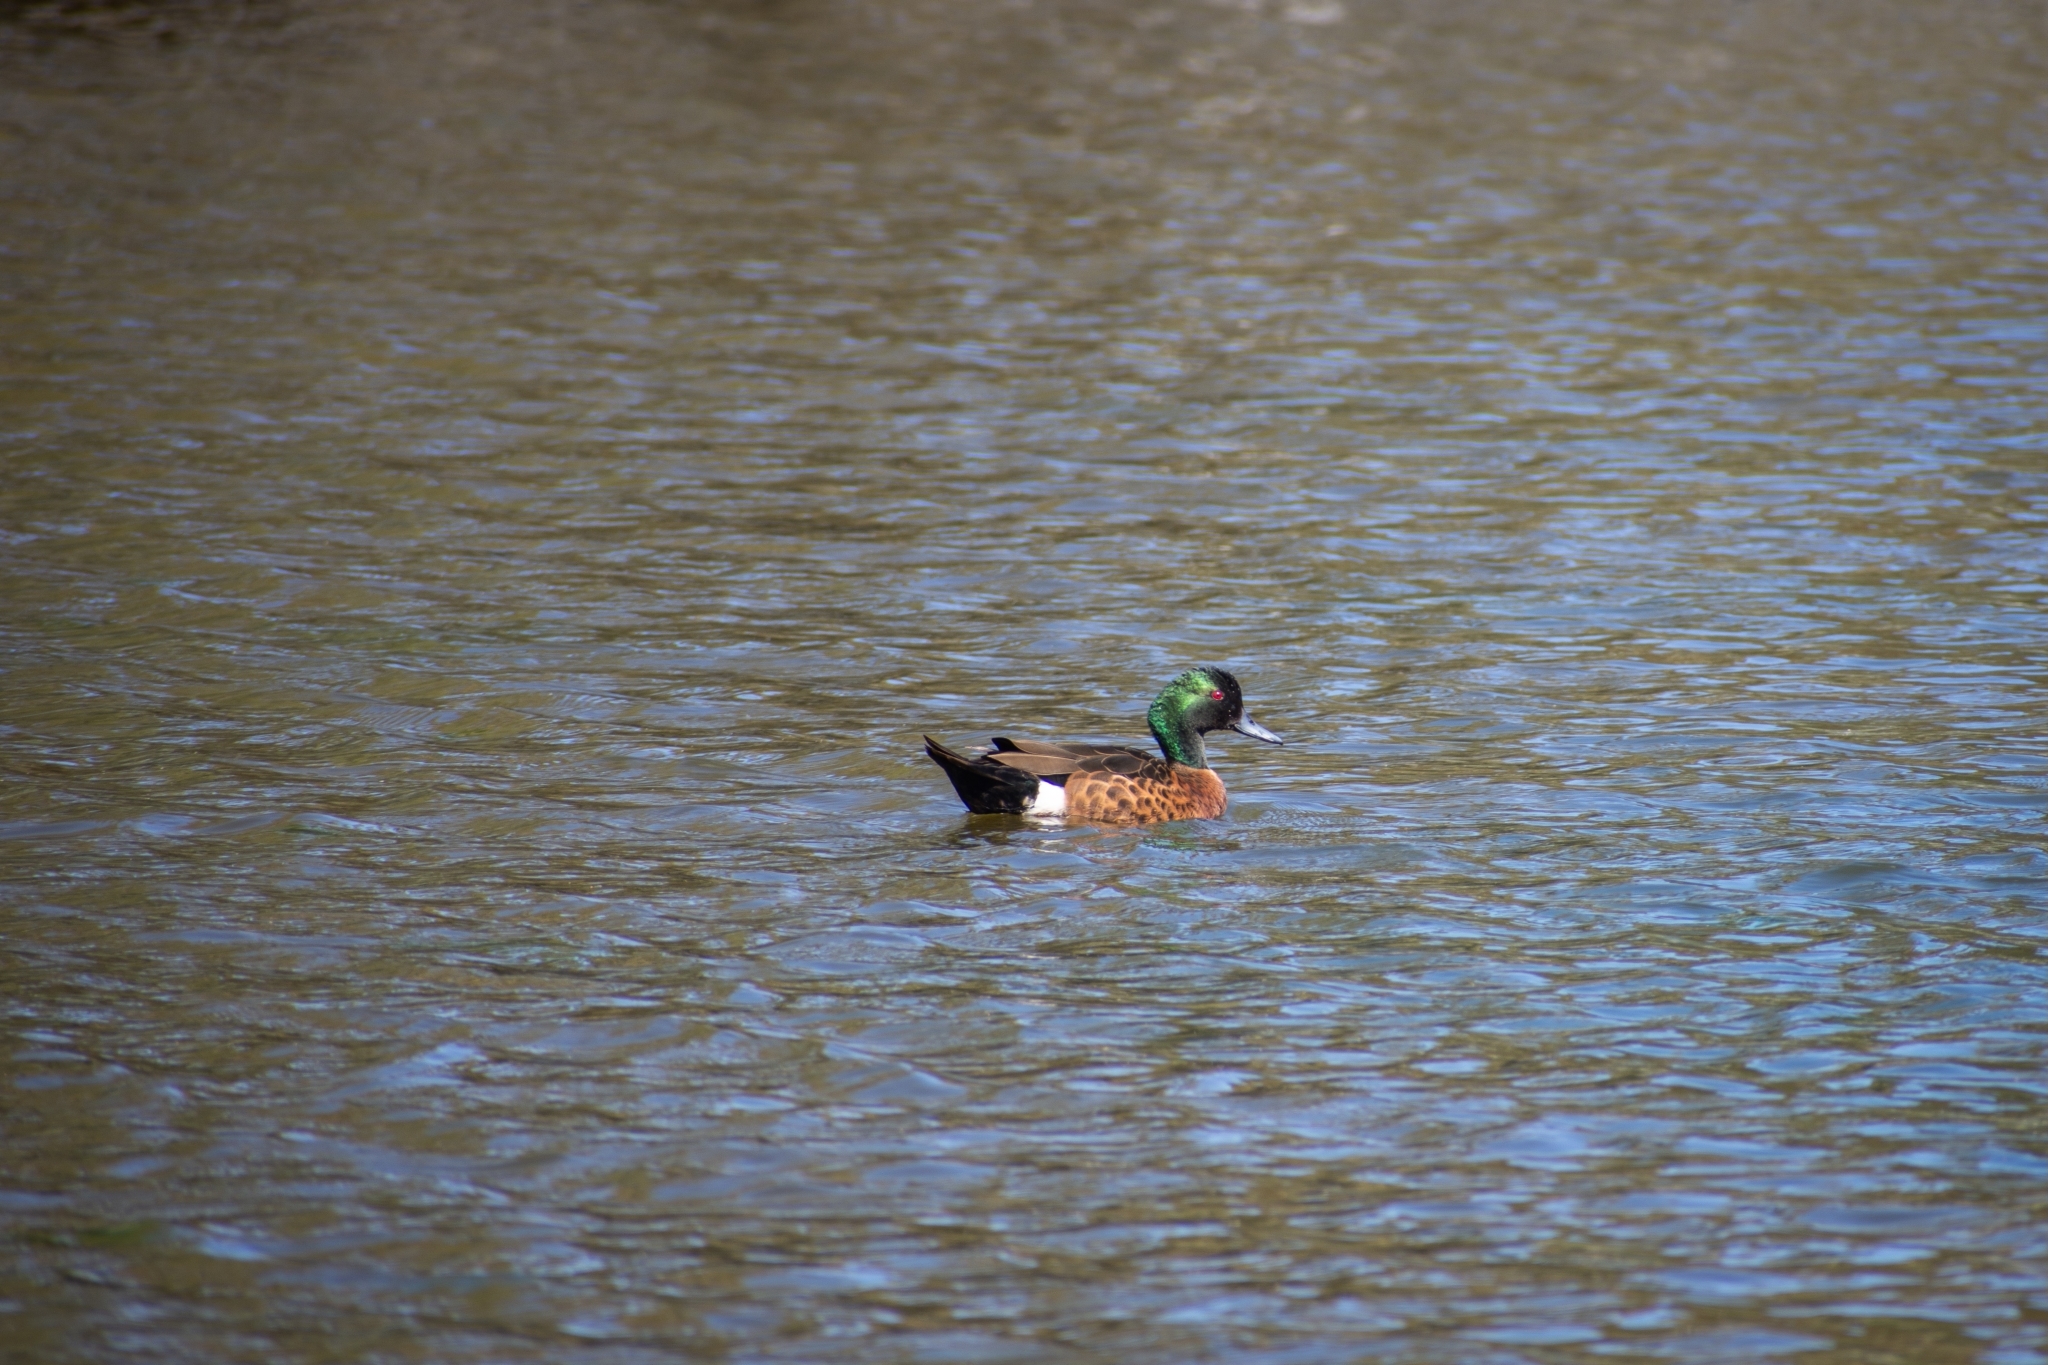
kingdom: Animalia
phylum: Chordata
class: Aves
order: Anseriformes
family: Anatidae
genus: Anas
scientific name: Anas castanea
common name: Chestnut teal
